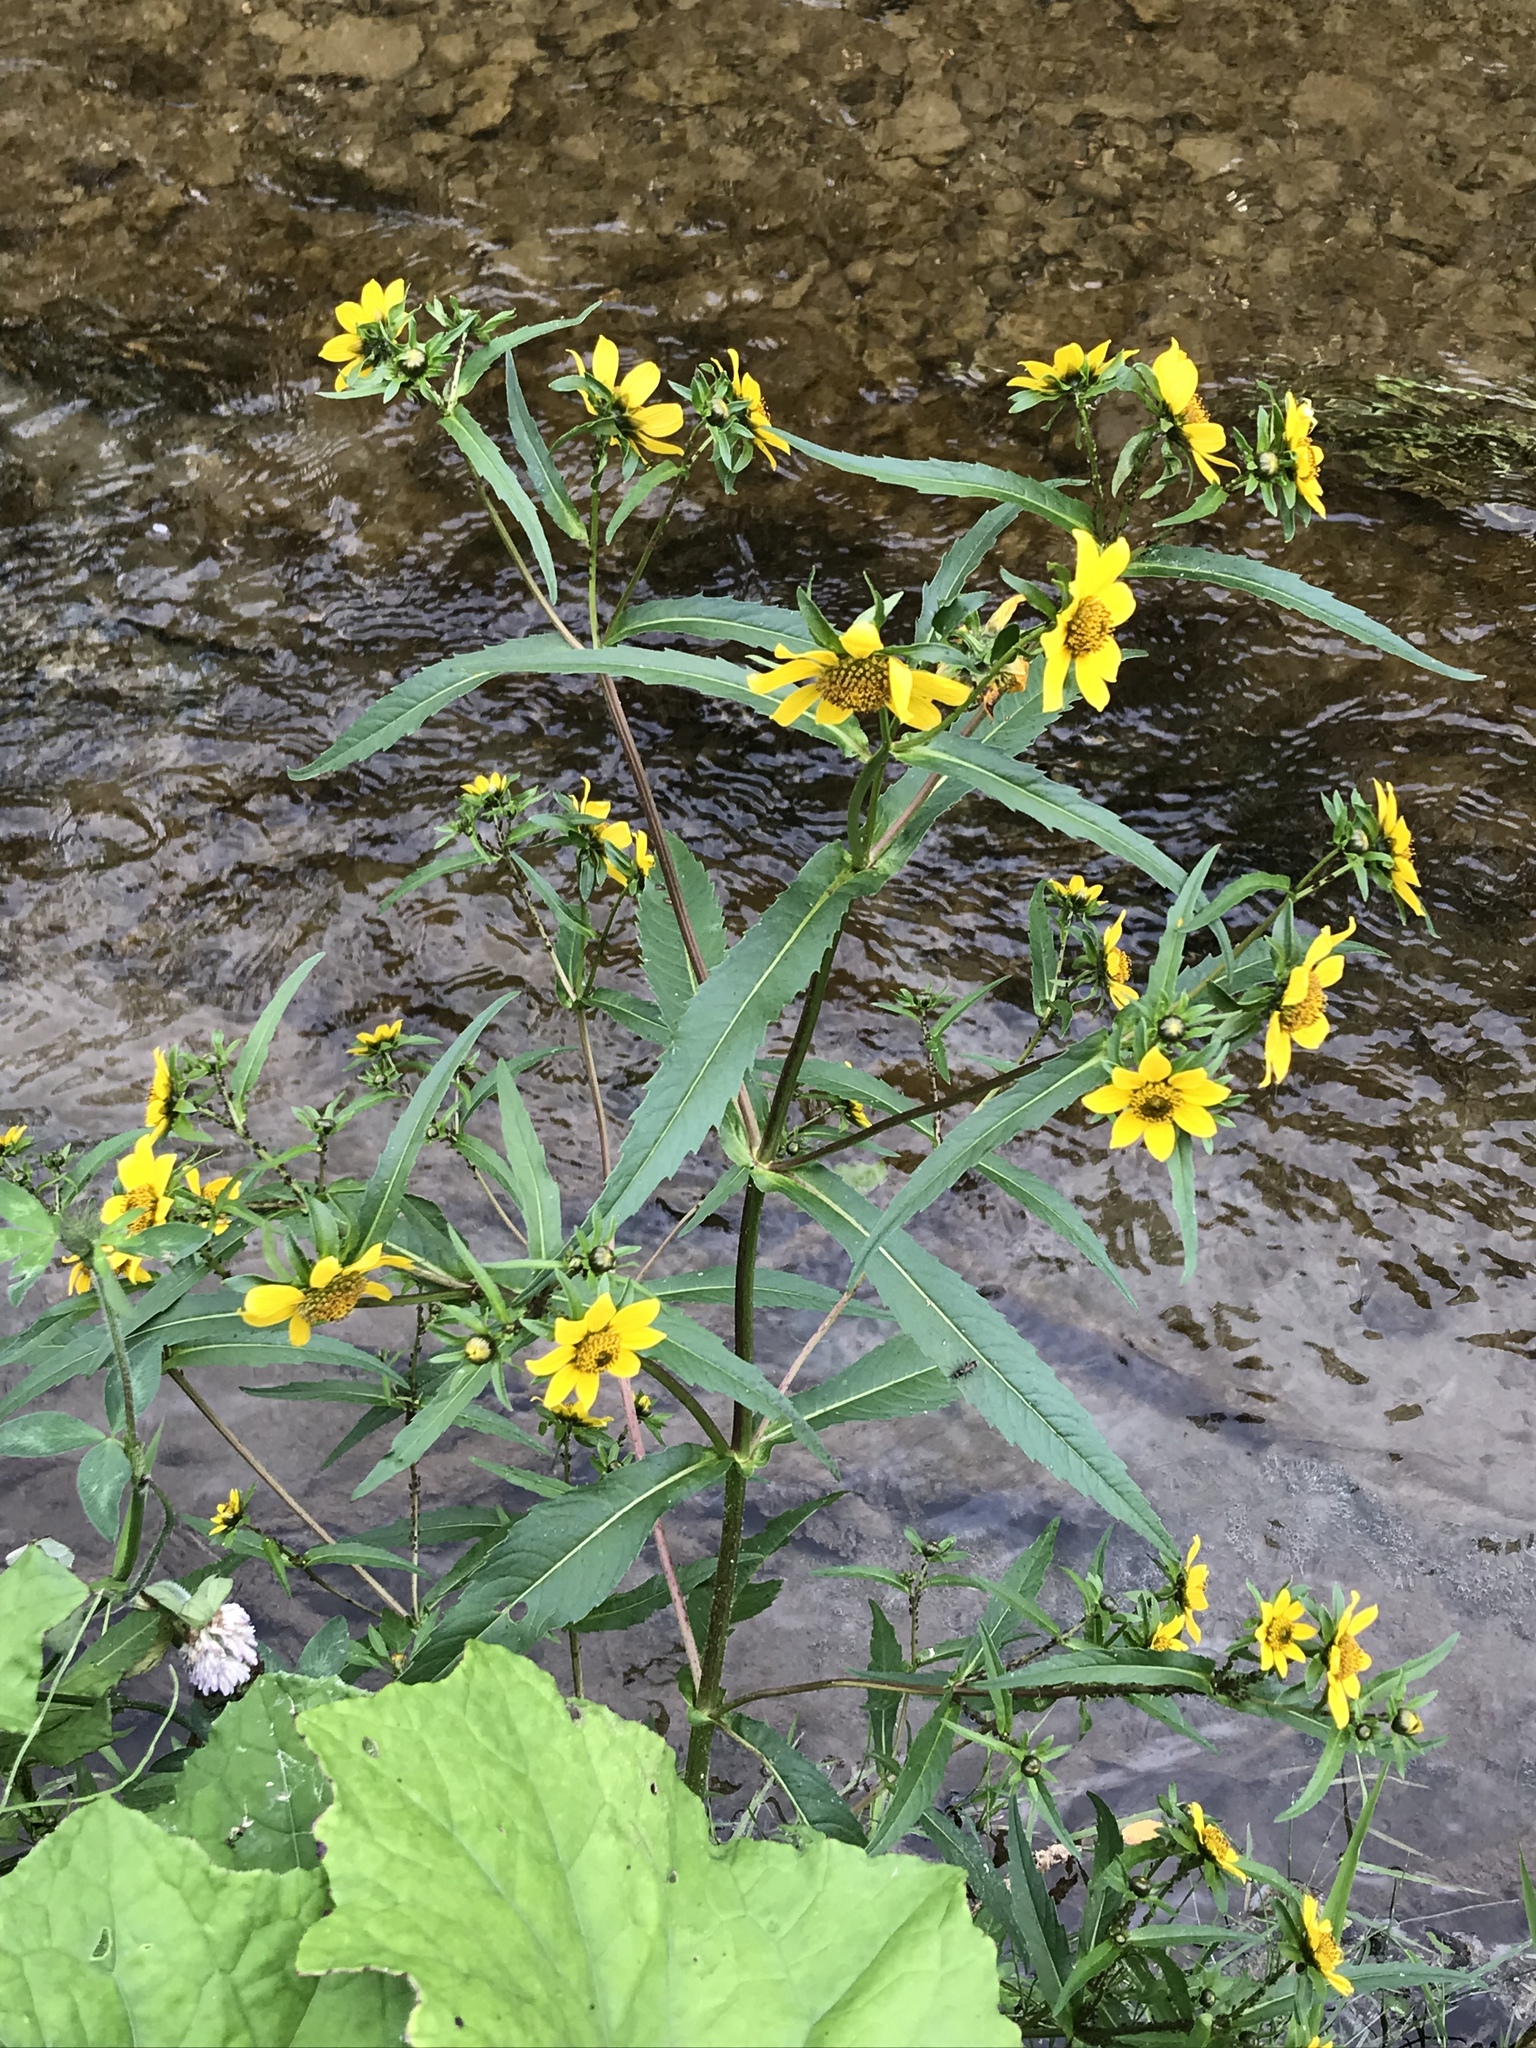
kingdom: Plantae
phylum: Tracheophyta
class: Magnoliopsida
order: Asterales
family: Asteraceae
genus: Bidens
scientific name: Bidens cernua
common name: Nodding bur-marigold
